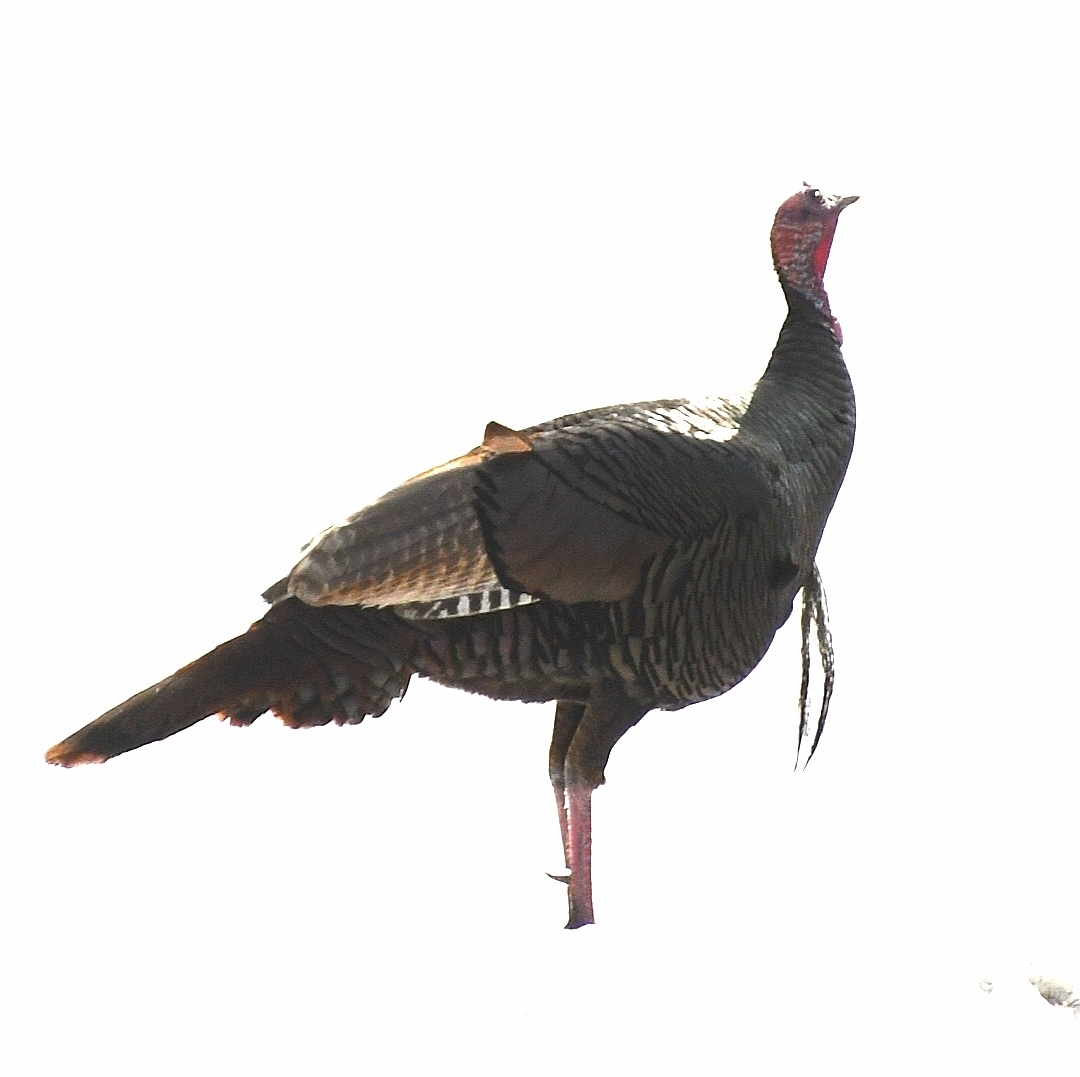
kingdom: Animalia
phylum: Chordata
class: Aves
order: Galliformes
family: Phasianidae
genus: Meleagris
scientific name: Meleagris gallopavo
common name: Wild turkey
